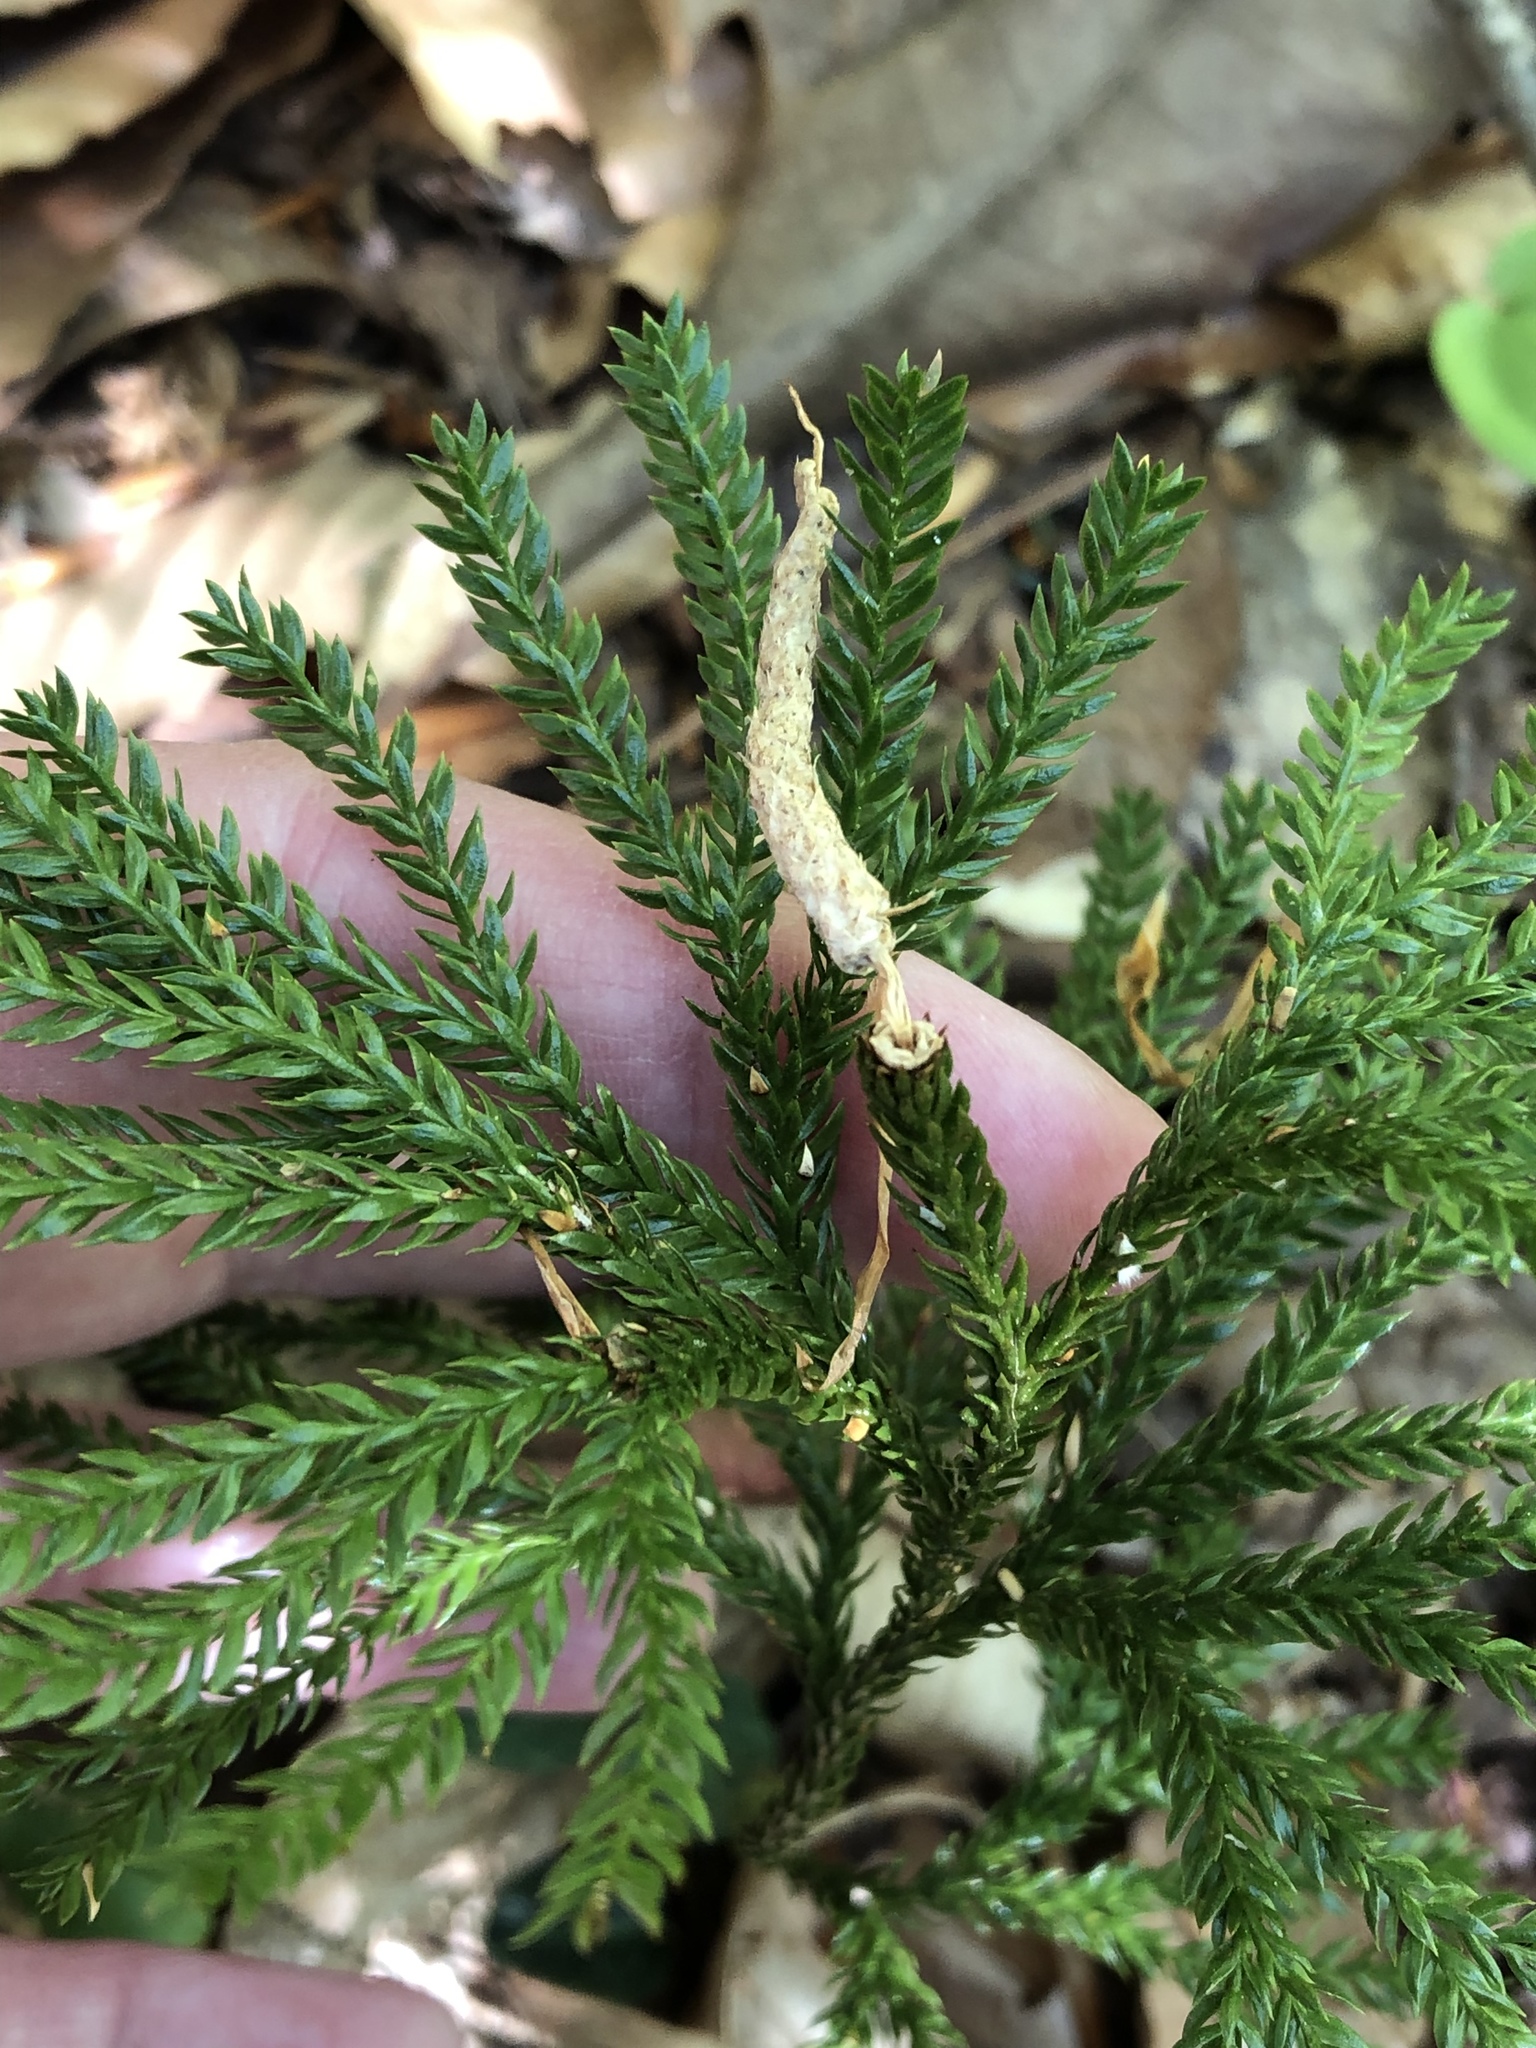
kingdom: Plantae
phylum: Tracheophyta
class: Lycopodiopsida
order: Lycopodiales
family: Lycopodiaceae
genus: Dendrolycopodium
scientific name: Dendrolycopodium obscurum
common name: Common ground-pine
